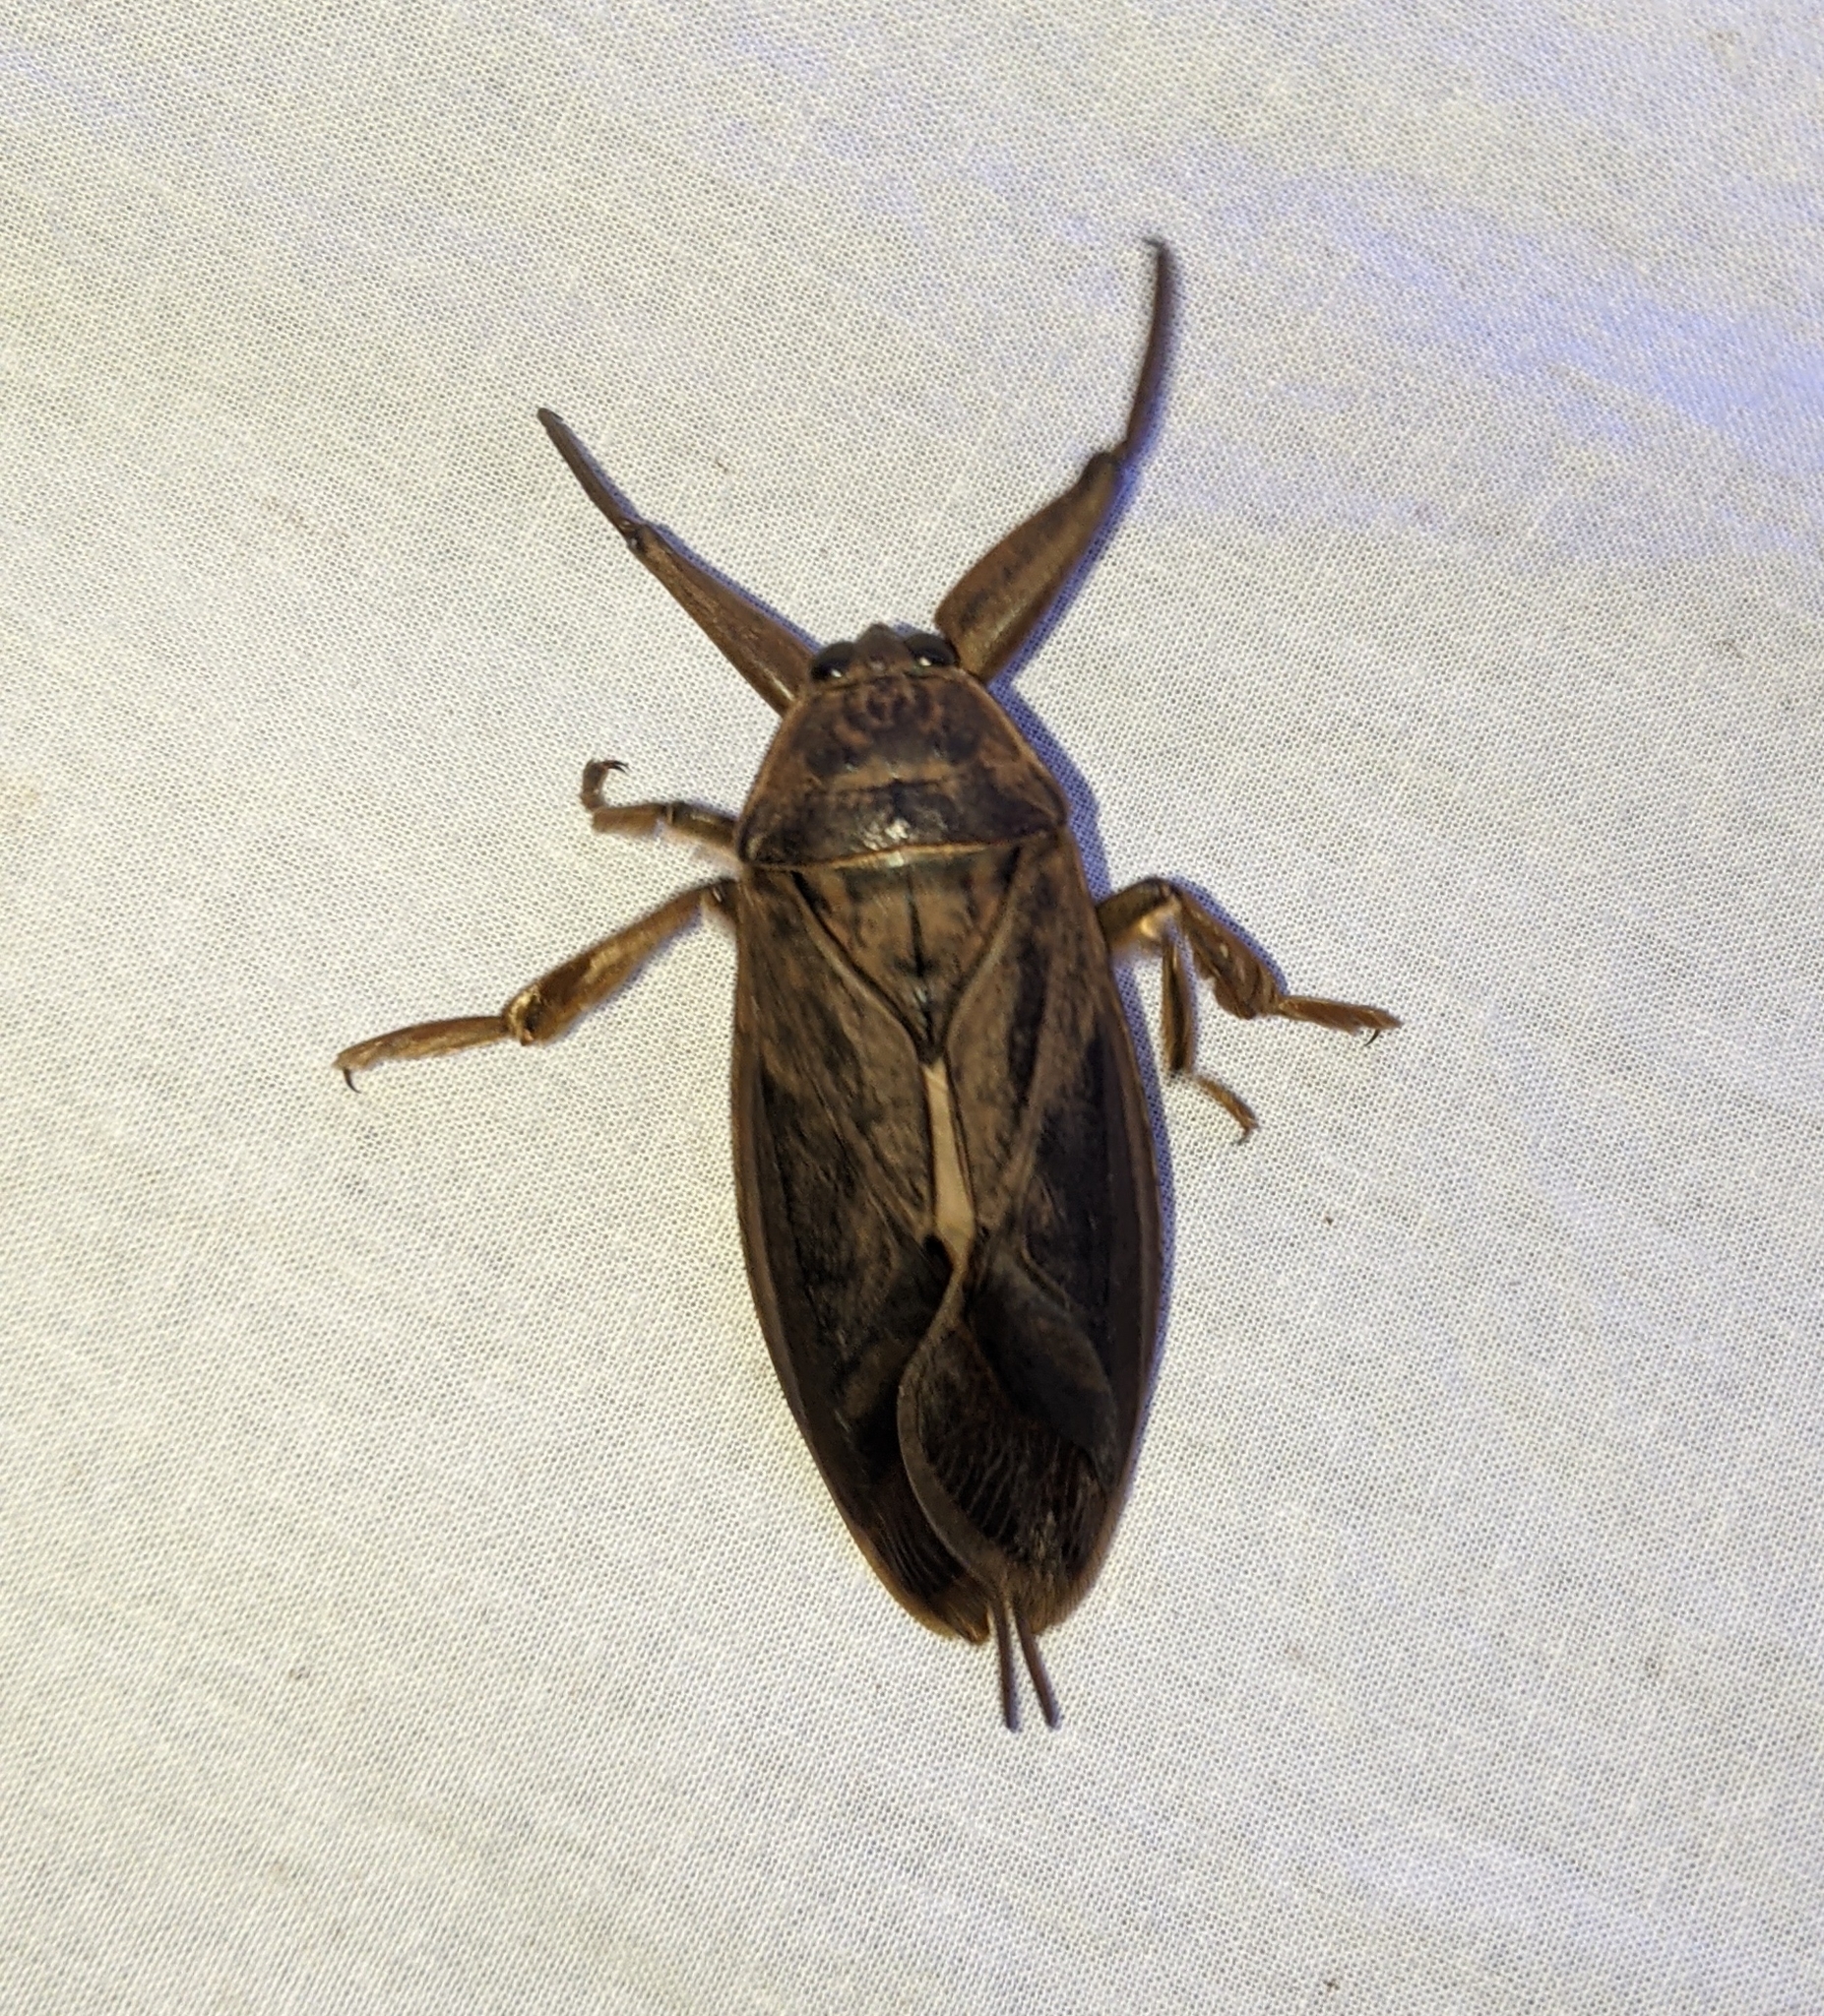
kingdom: Animalia
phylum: Arthropoda
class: Insecta
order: Hemiptera
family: Belostomatidae
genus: Lethocerus
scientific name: Lethocerus americanus
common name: Giant water bug
